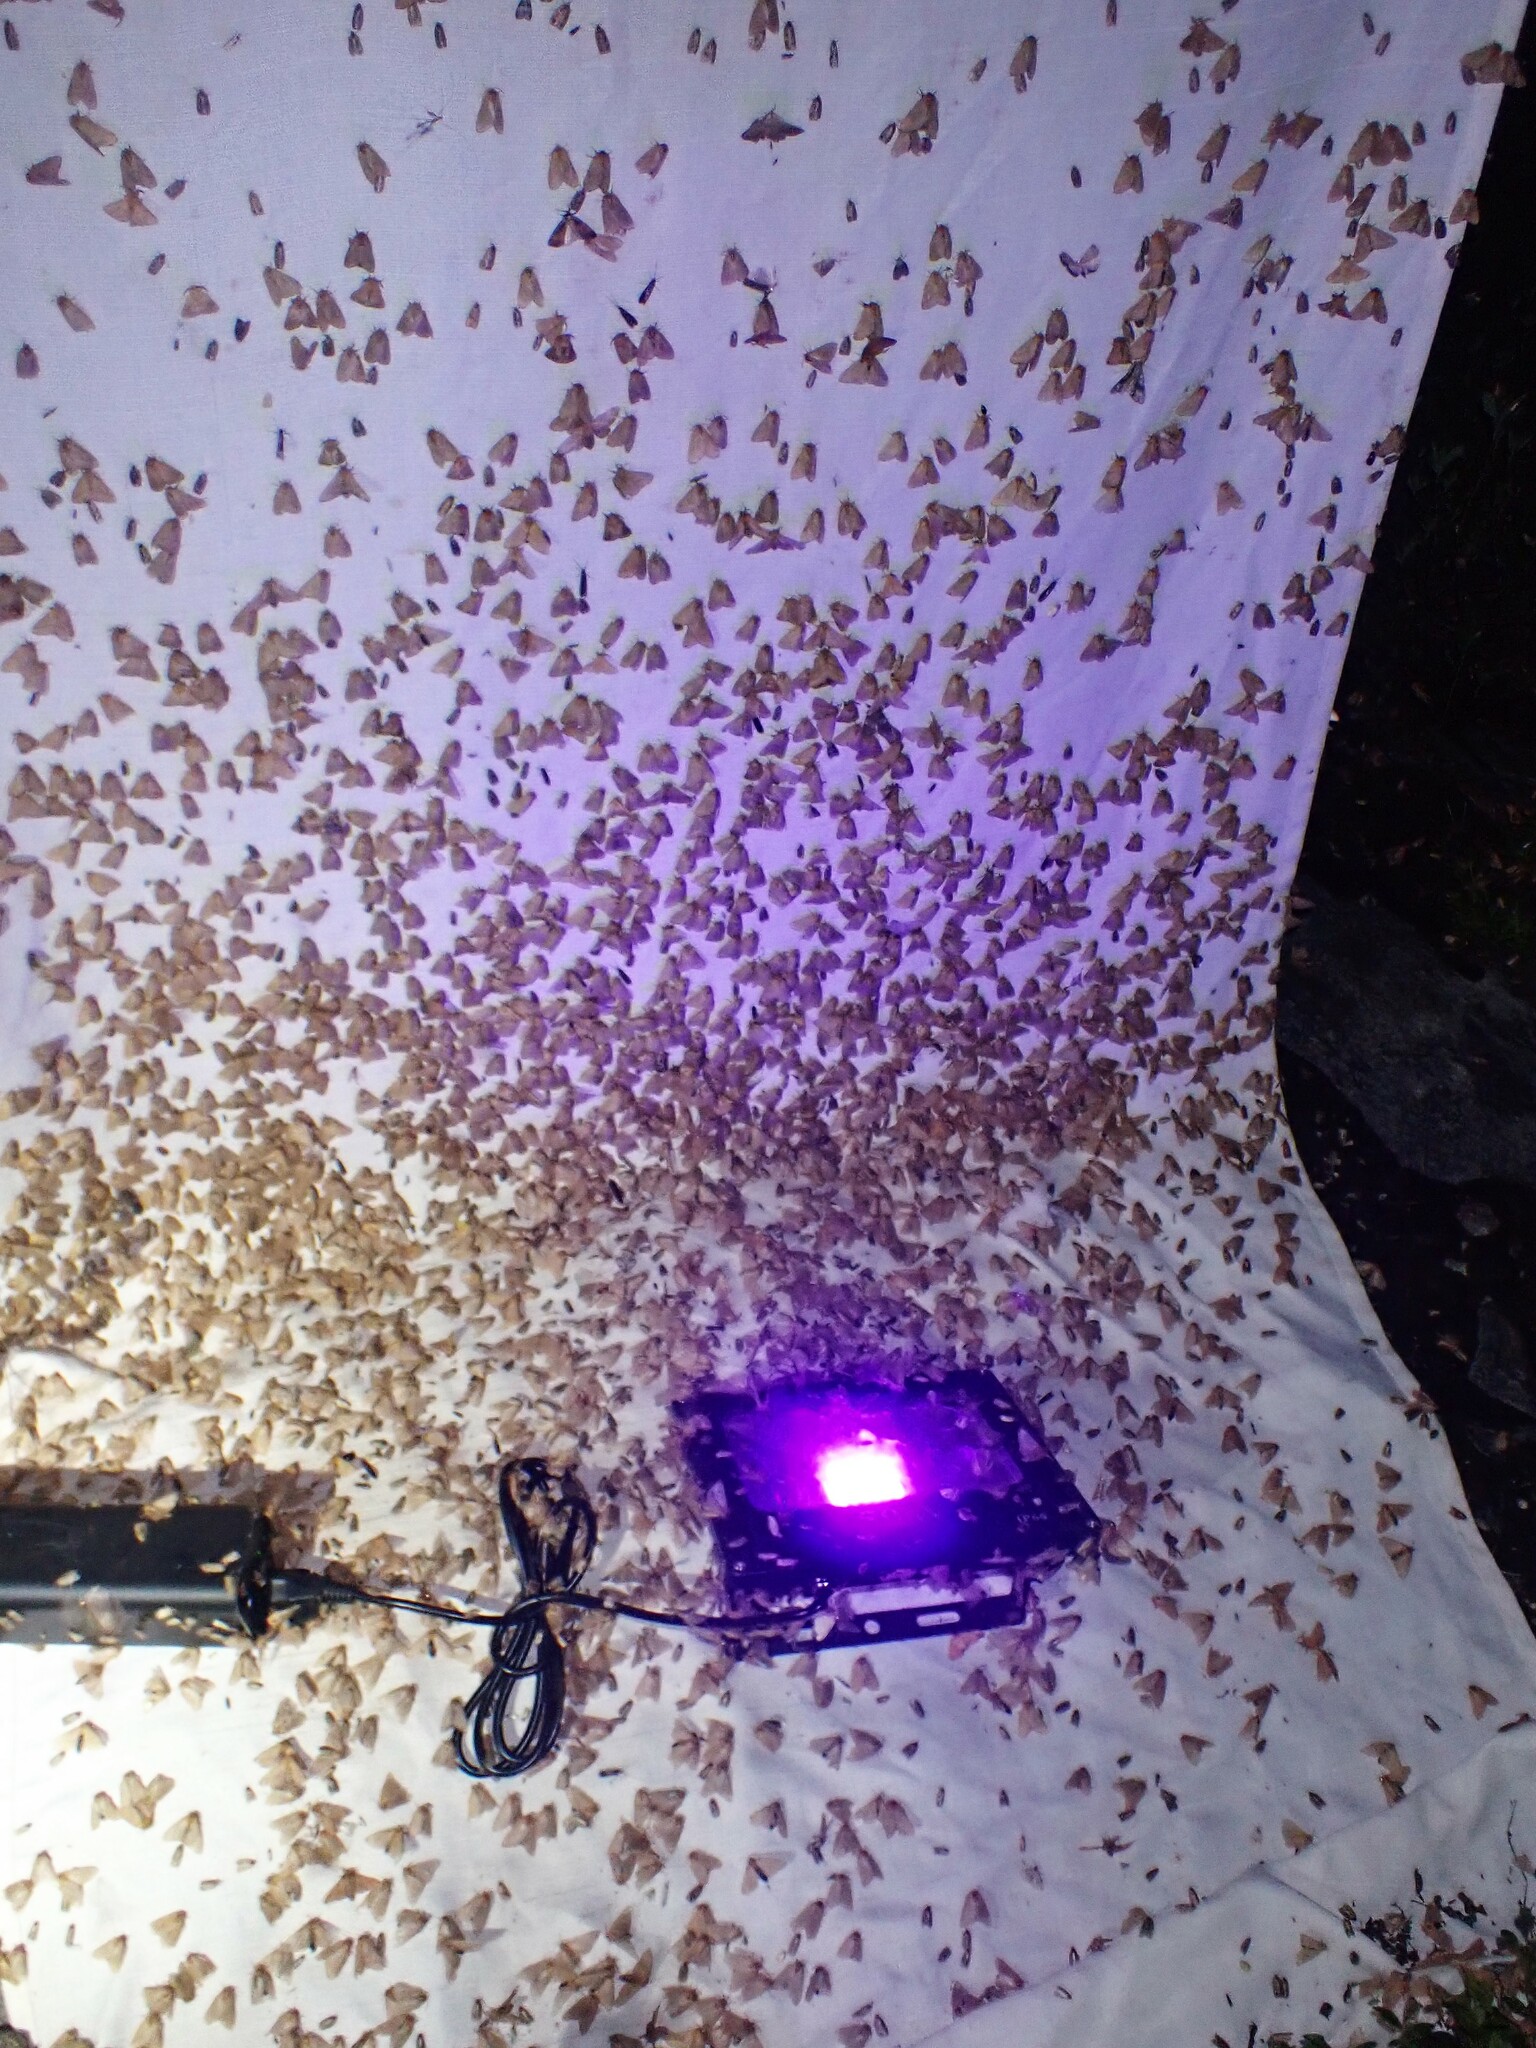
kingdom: Animalia
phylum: Arthropoda
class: Insecta
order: Lepidoptera
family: Lasiocampidae
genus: Malacosoma
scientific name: Malacosoma disstria
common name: Forest tent caterpillar
